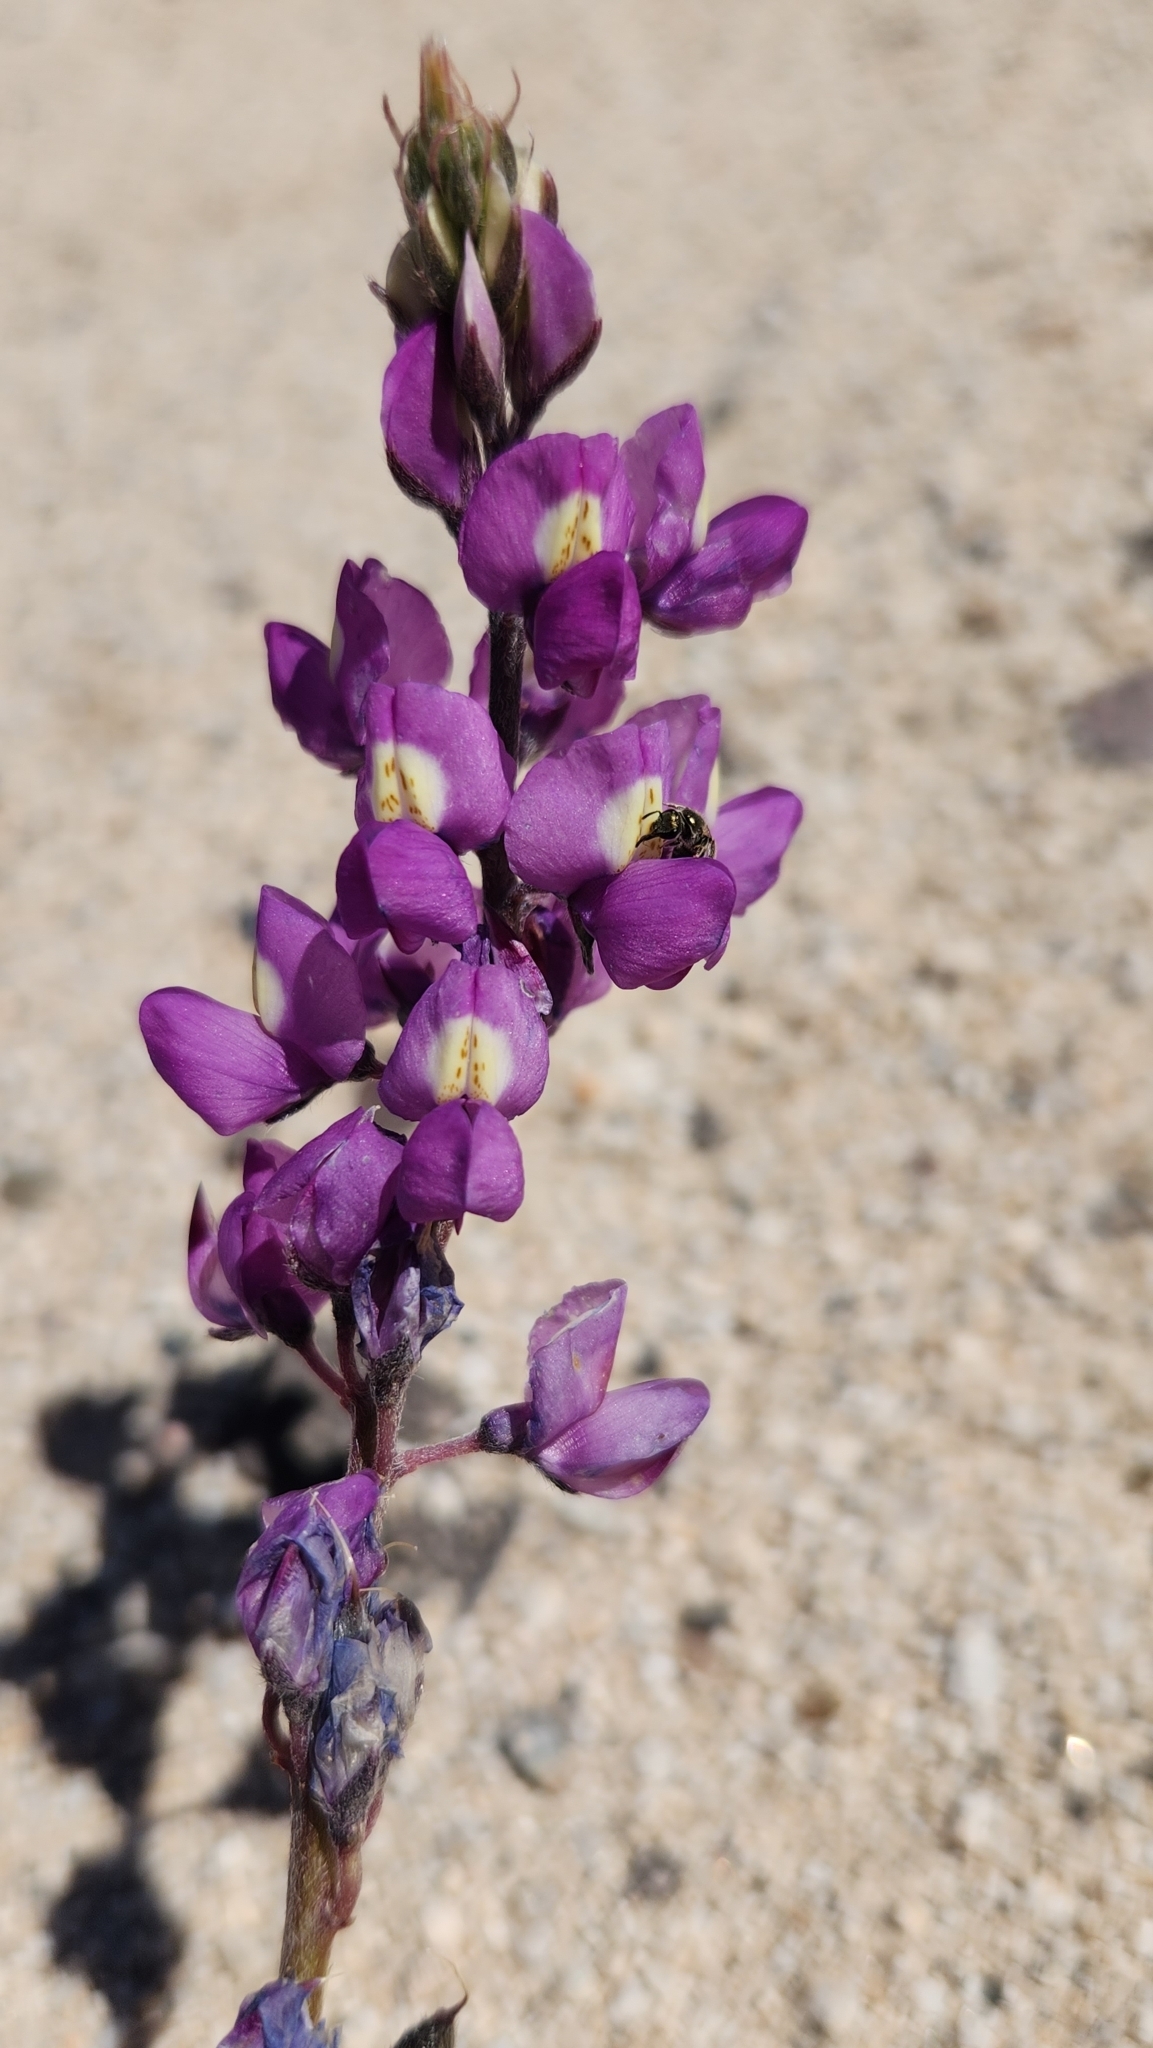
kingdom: Plantae
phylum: Tracheophyta
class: Magnoliopsida
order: Fabales
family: Fabaceae
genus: Lupinus
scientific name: Lupinus arizonicus
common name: Arizona lupine
